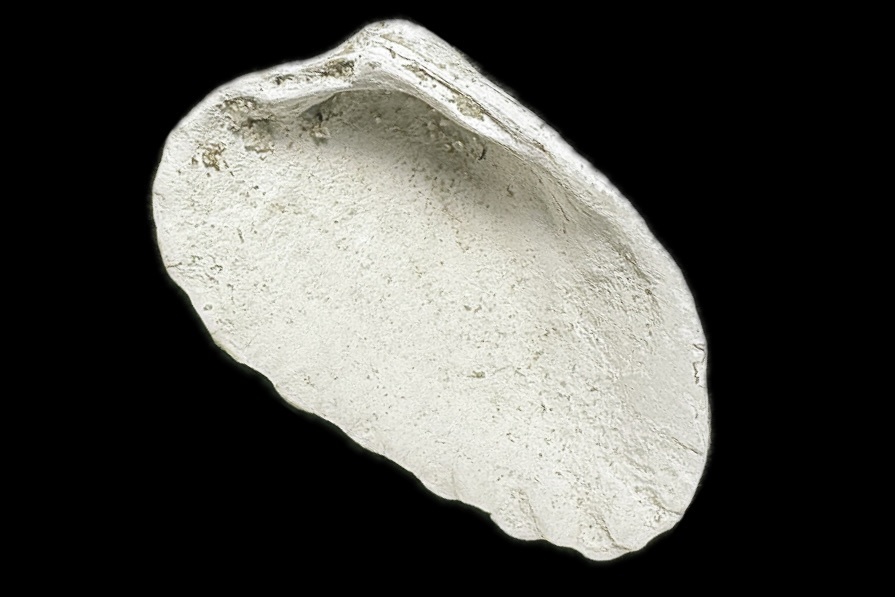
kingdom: Animalia
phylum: Mollusca
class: Bivalvia
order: Carditida
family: Carditidae
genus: Cardites
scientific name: Cardites floridanus
